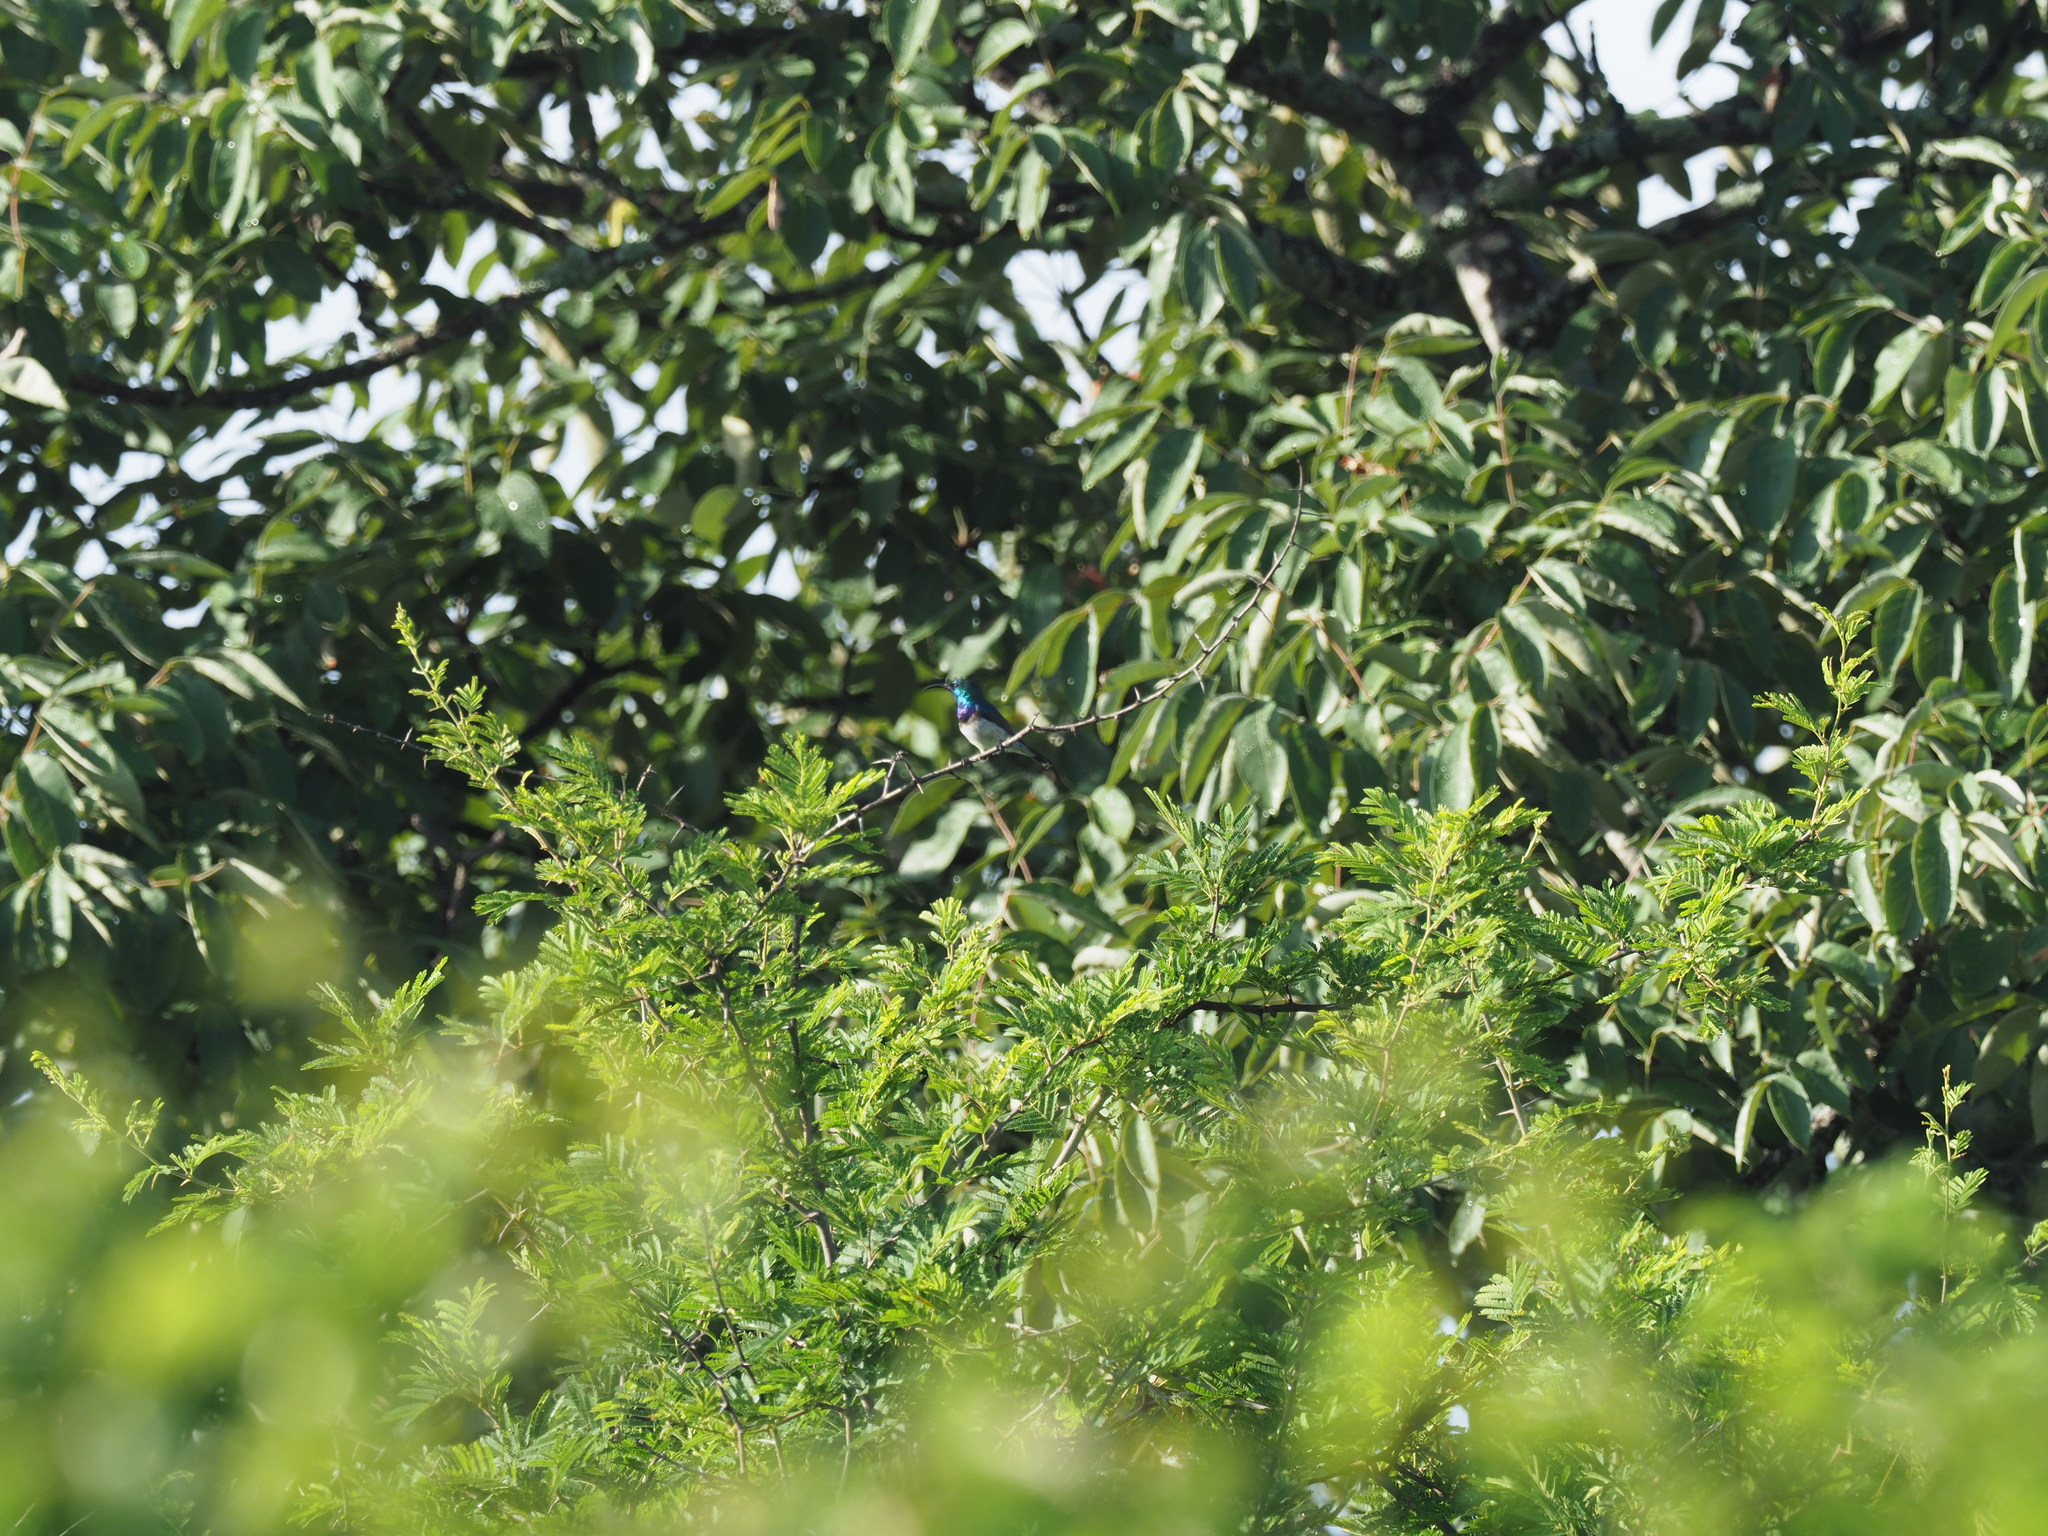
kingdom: Animalia
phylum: Chordata
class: Aves
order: Passeriformes
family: Nectariniidae
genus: Cinnyris
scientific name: Cinnyris talatala
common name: White-bellied sunbird
